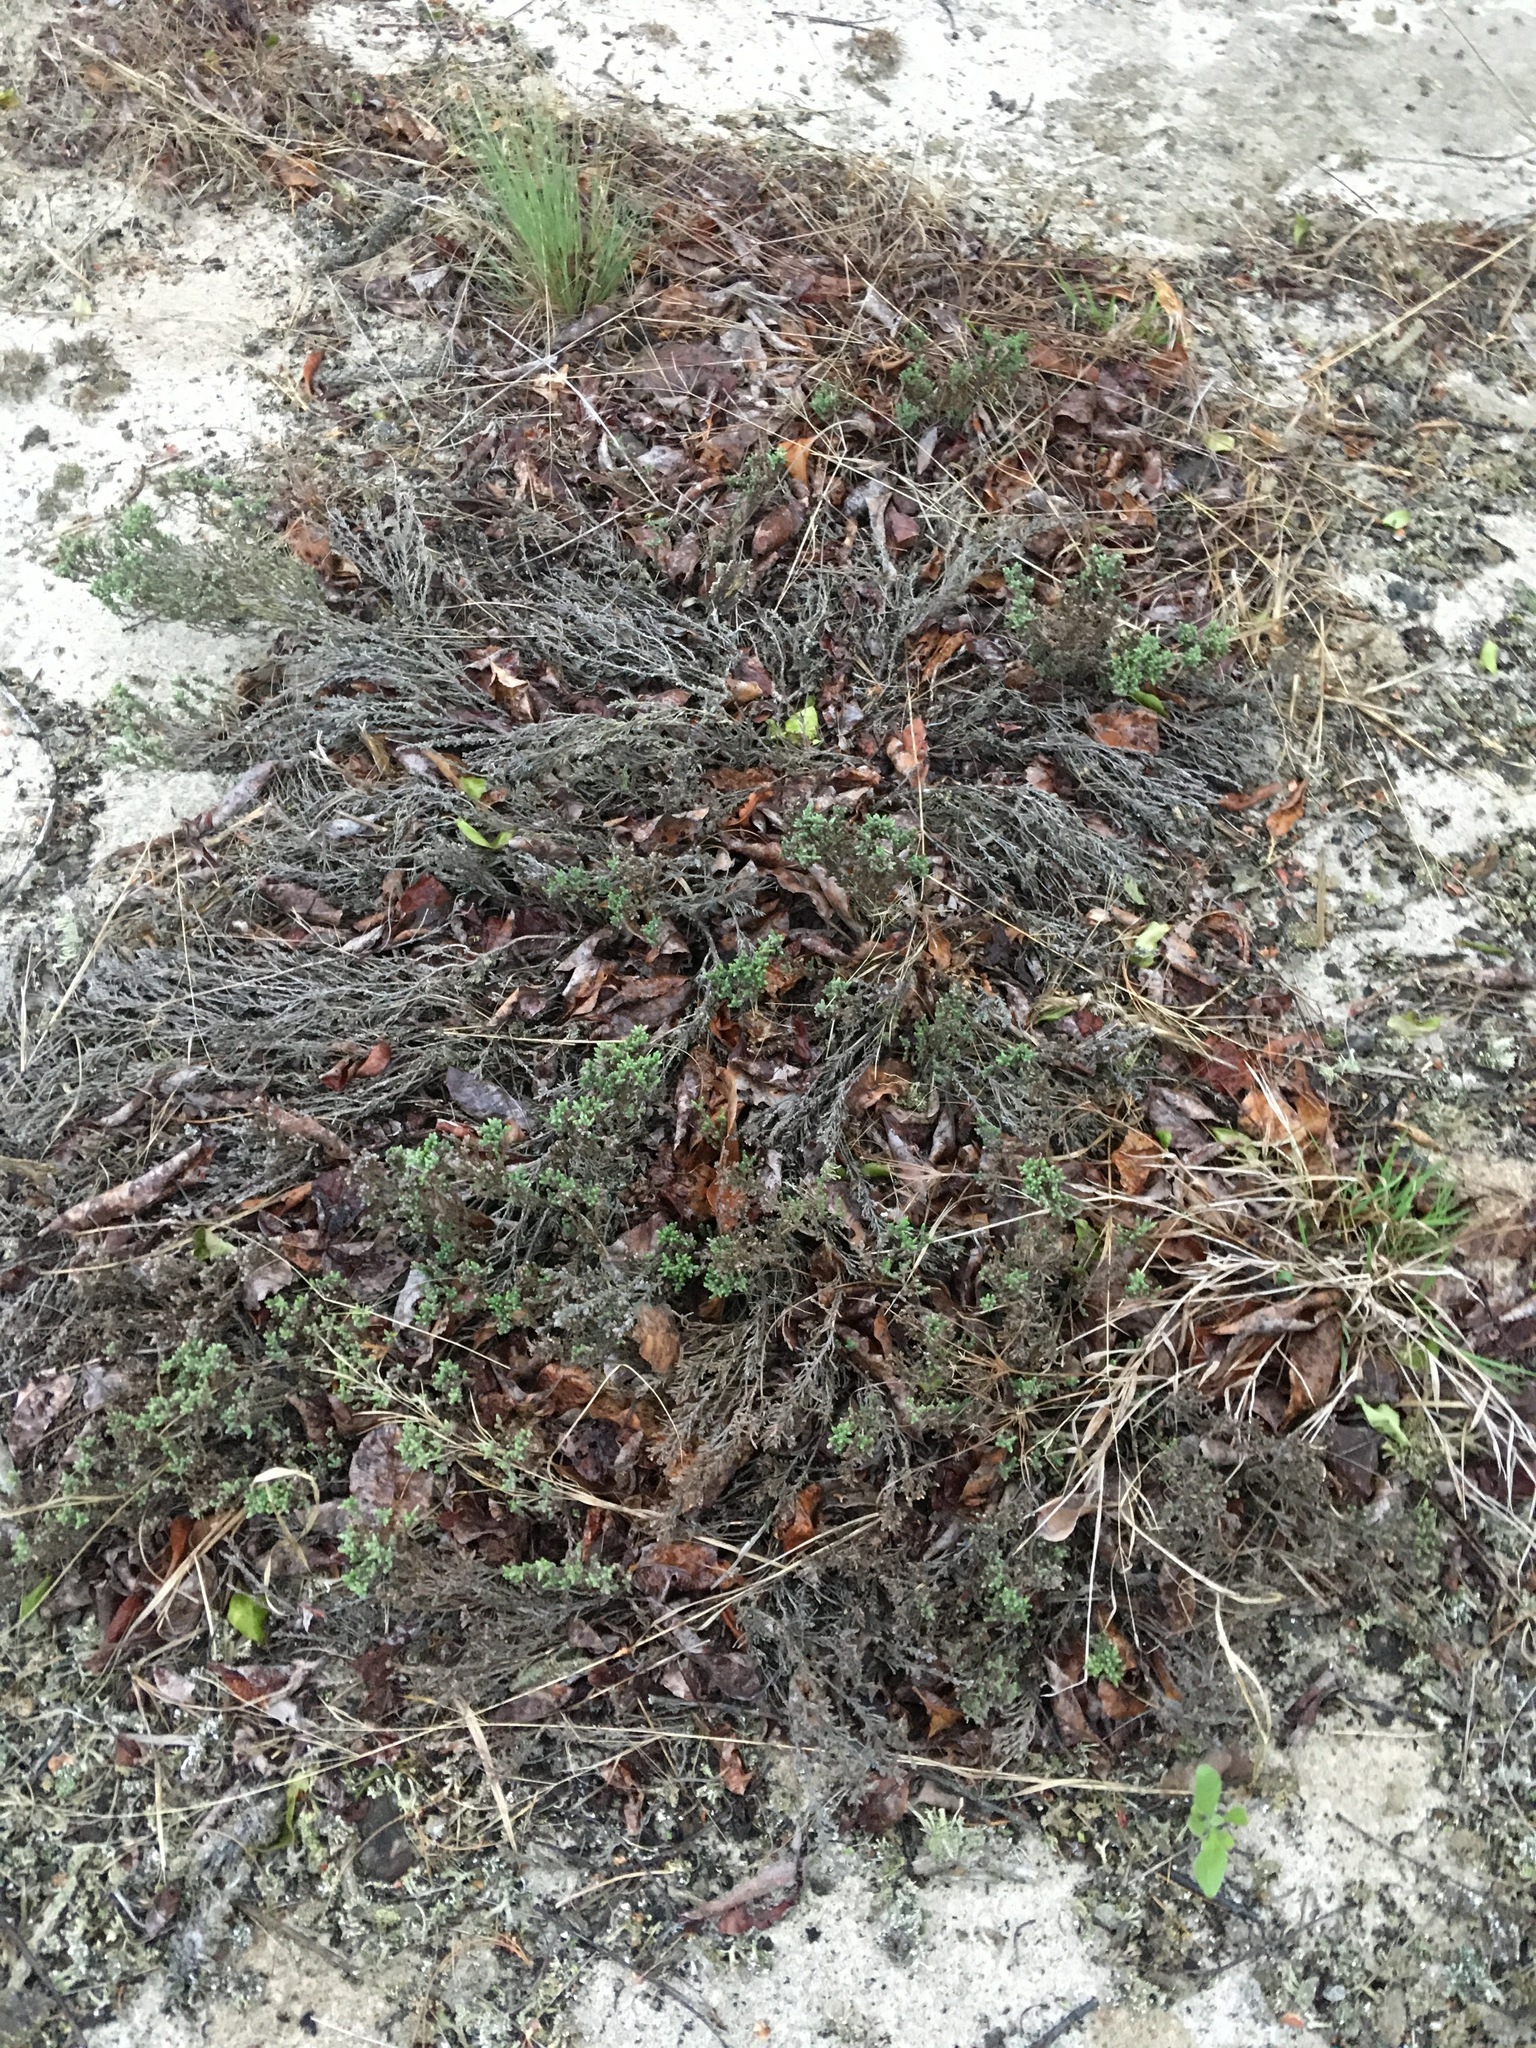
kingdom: Plantae
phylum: Tracheophyta
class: Magnoliopsida
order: Malvales
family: Cistaceae
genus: Hudsonia
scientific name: Hudsonia tomentosa
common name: Beach-heath
